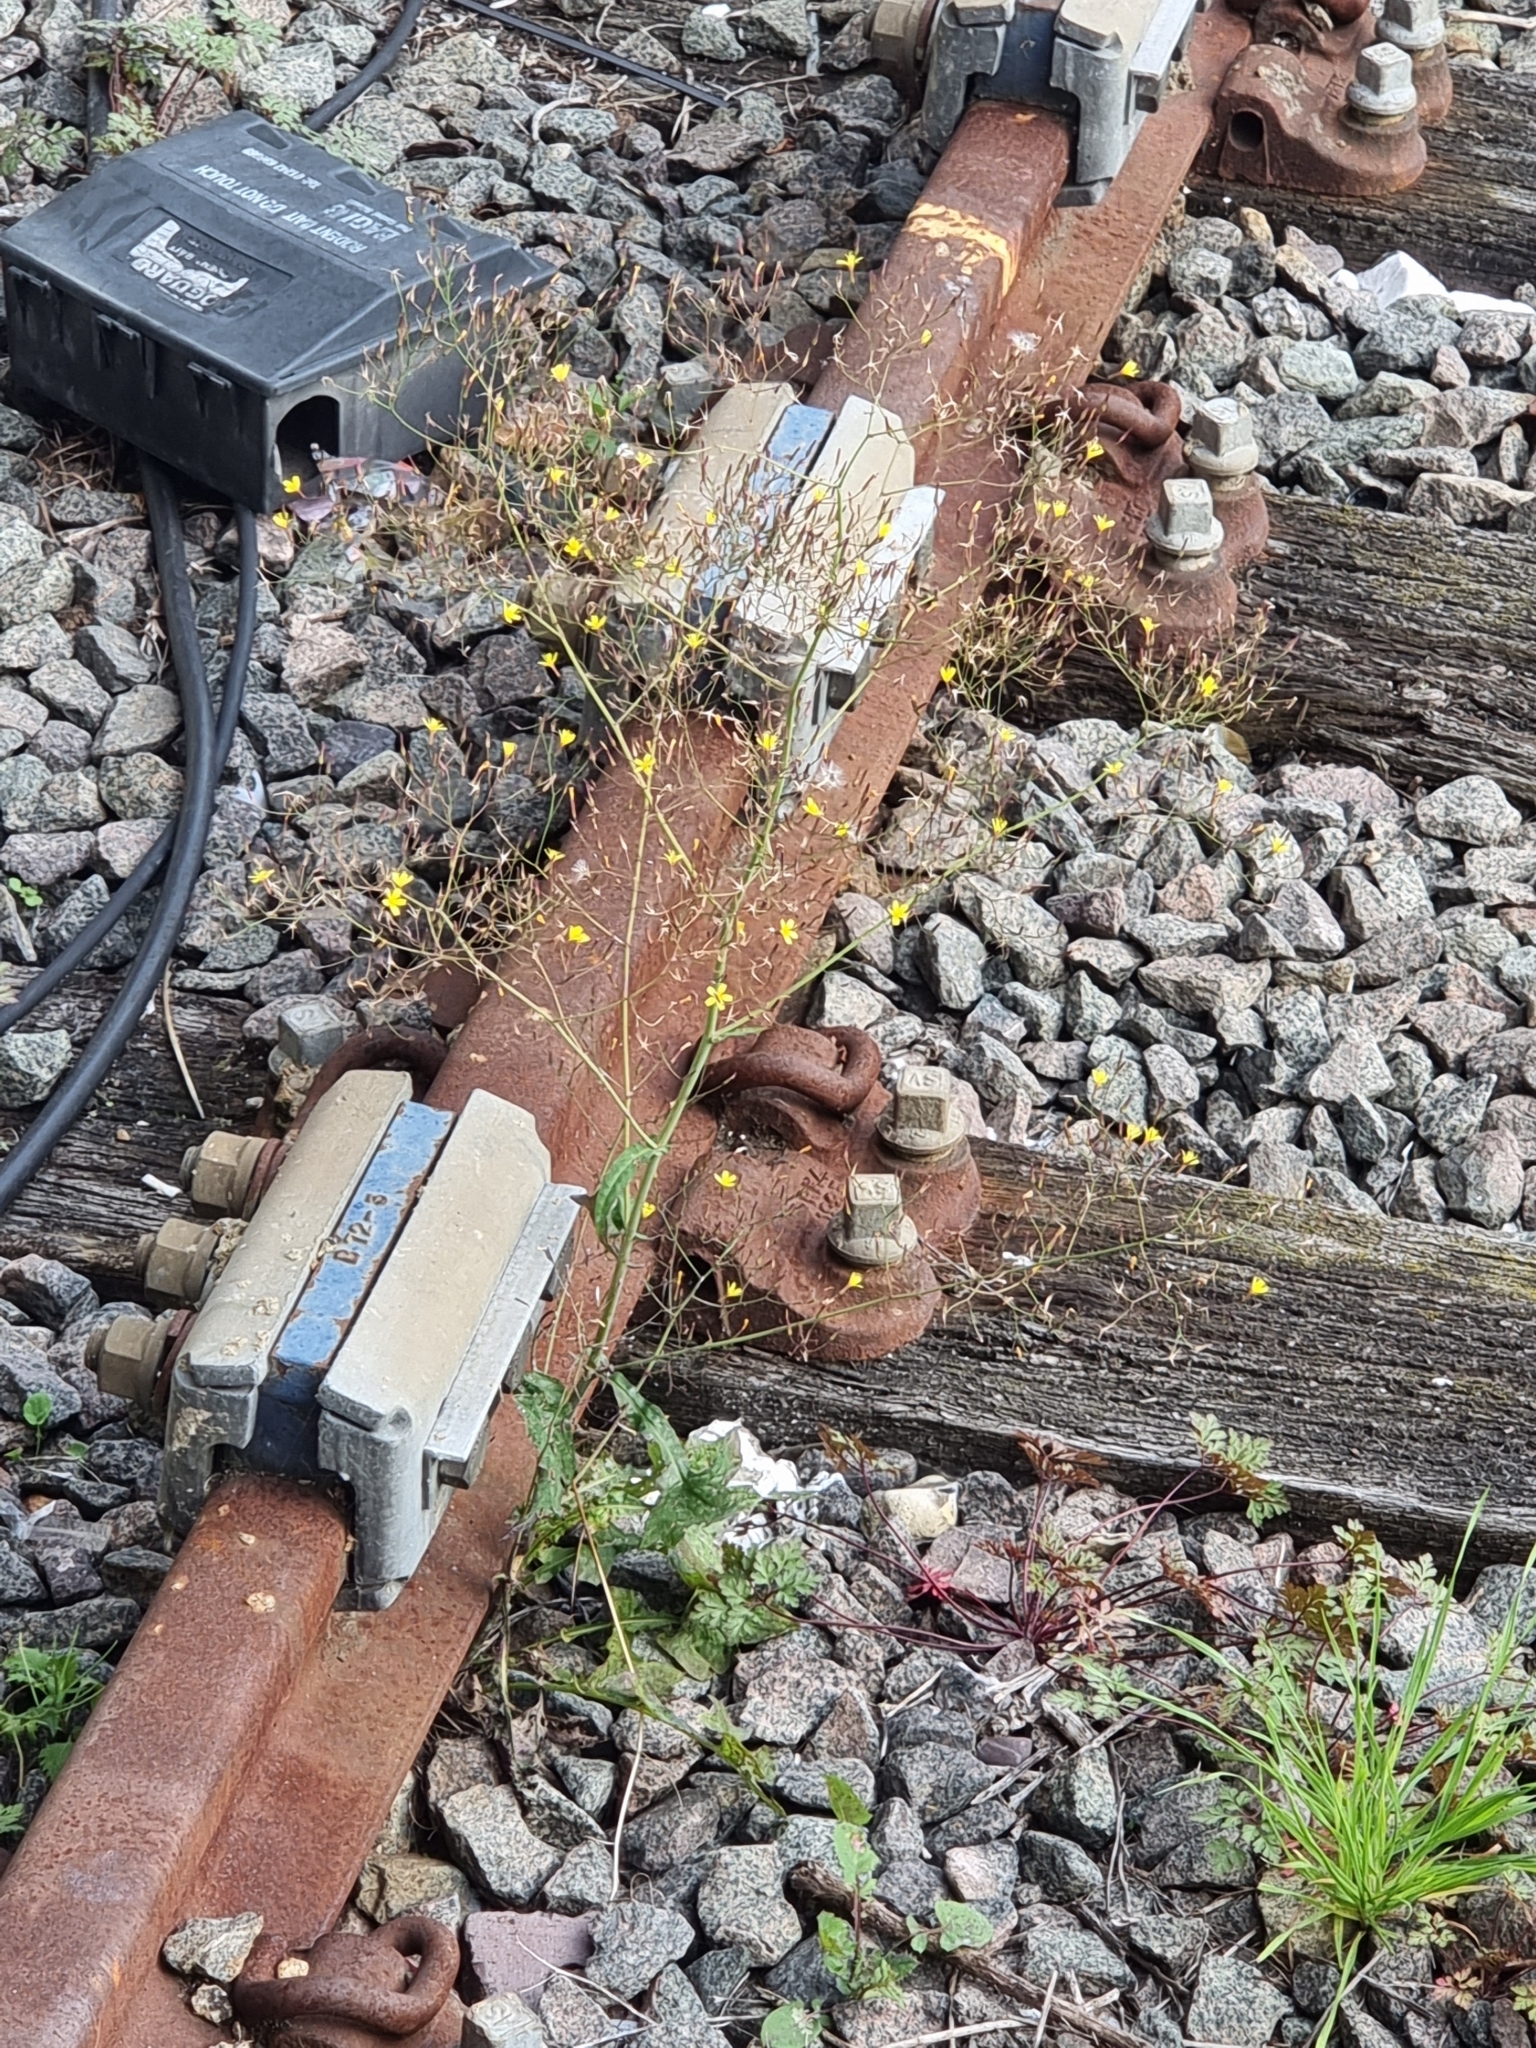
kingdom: Plantae
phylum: Tracheophyta
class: Magnoliopsida
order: Asterales
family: Asteraceae
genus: Mycelis
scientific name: Mycelis muralis
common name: Wall lettuce
